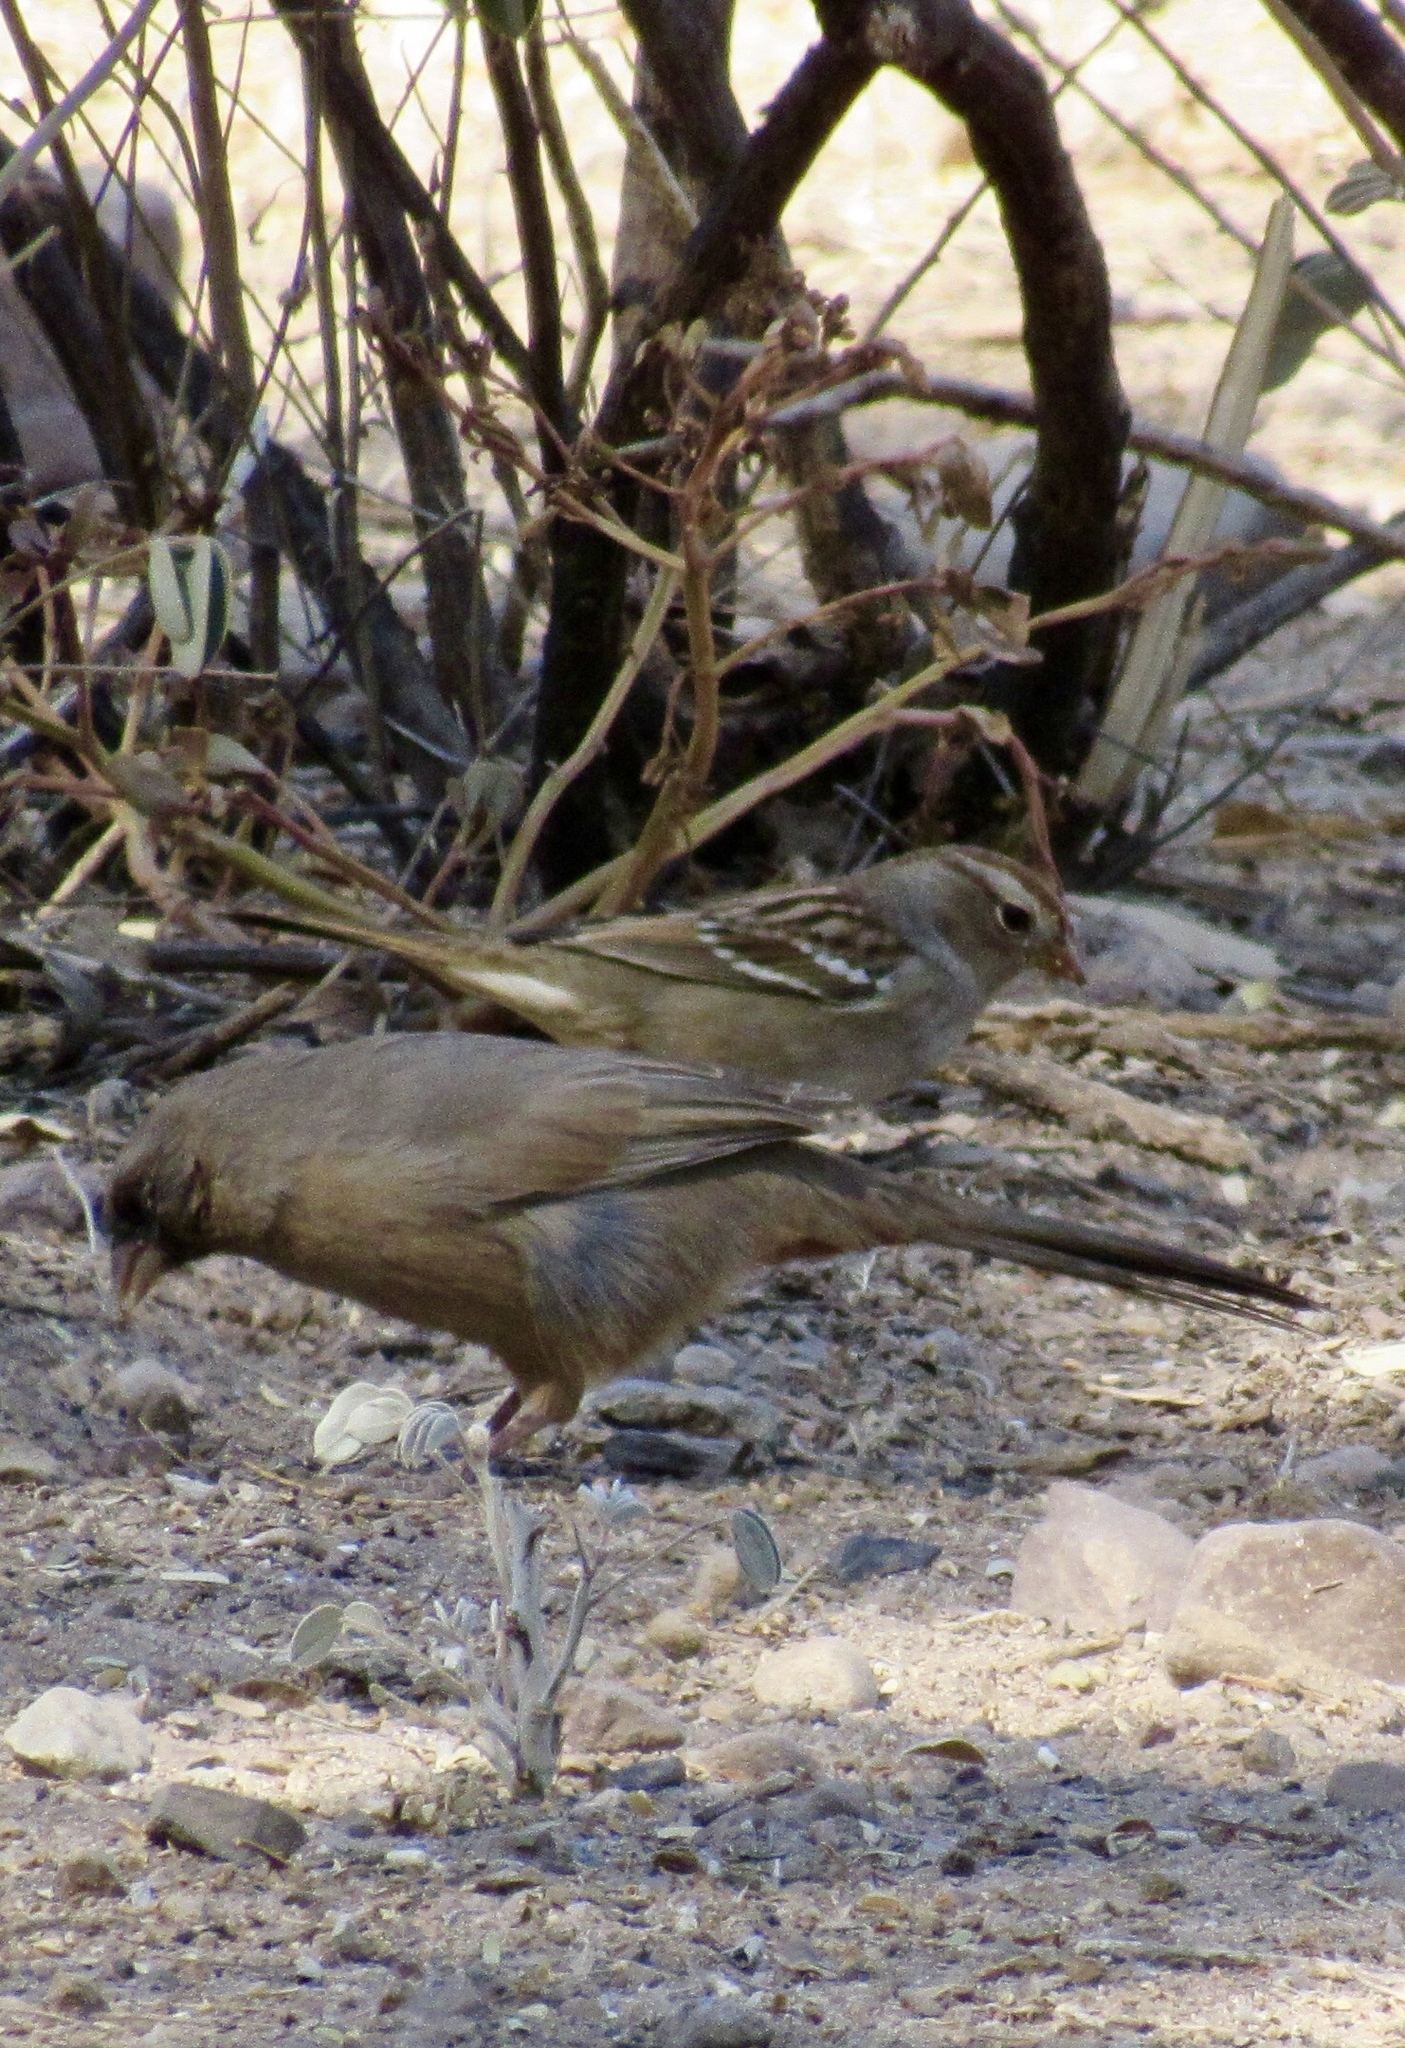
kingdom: Animalia
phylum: Chordata
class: Aves
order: Passeriformes
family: Passerellidae
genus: Melozone
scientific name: Melozone aberti
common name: Abert's towhee
